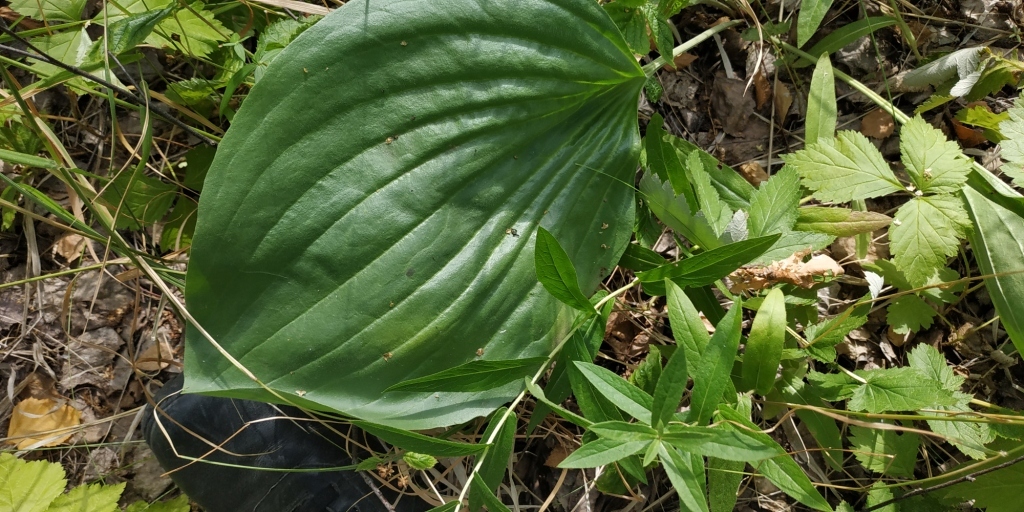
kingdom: Plantae
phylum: Tracheophyta
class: Magnoliopsida
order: Lamiales
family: Plantaginaceae
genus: Plantago
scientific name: Plantago maxima
